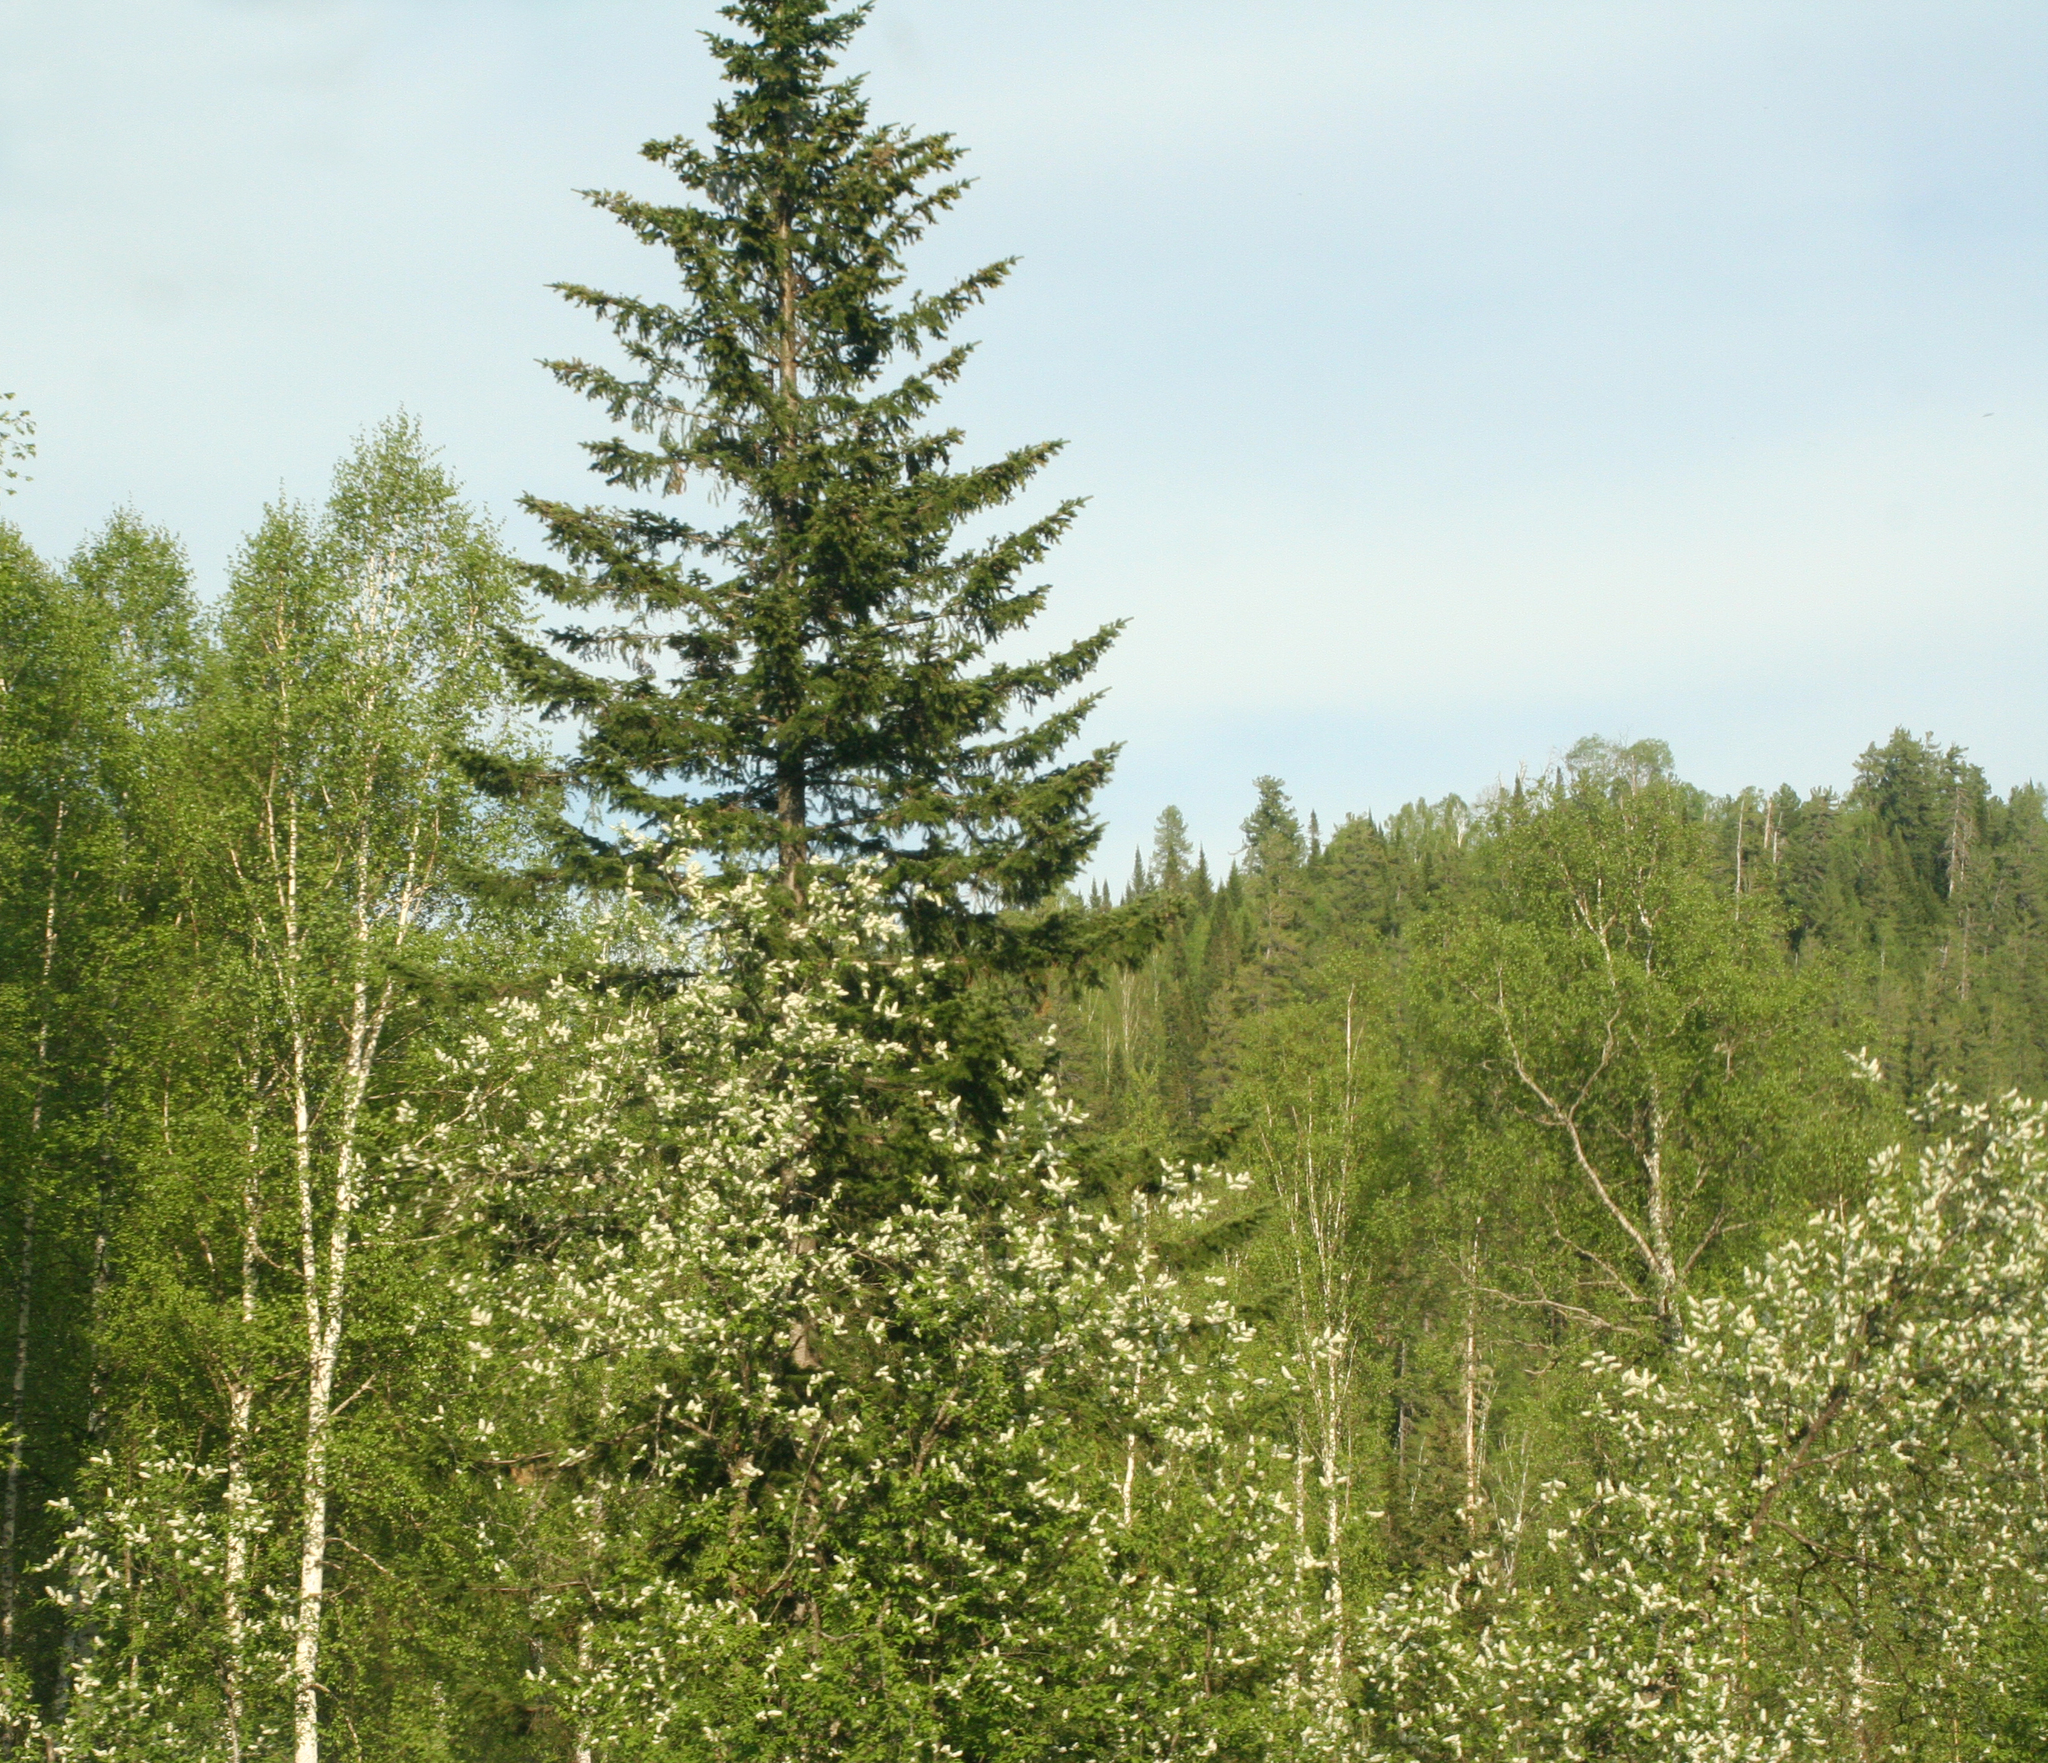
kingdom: Plantae
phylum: Tracheophyta
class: Pinopsida
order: Pinales
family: Pinaceae
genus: Picea
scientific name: Picea obovata
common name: Siberian spruce
